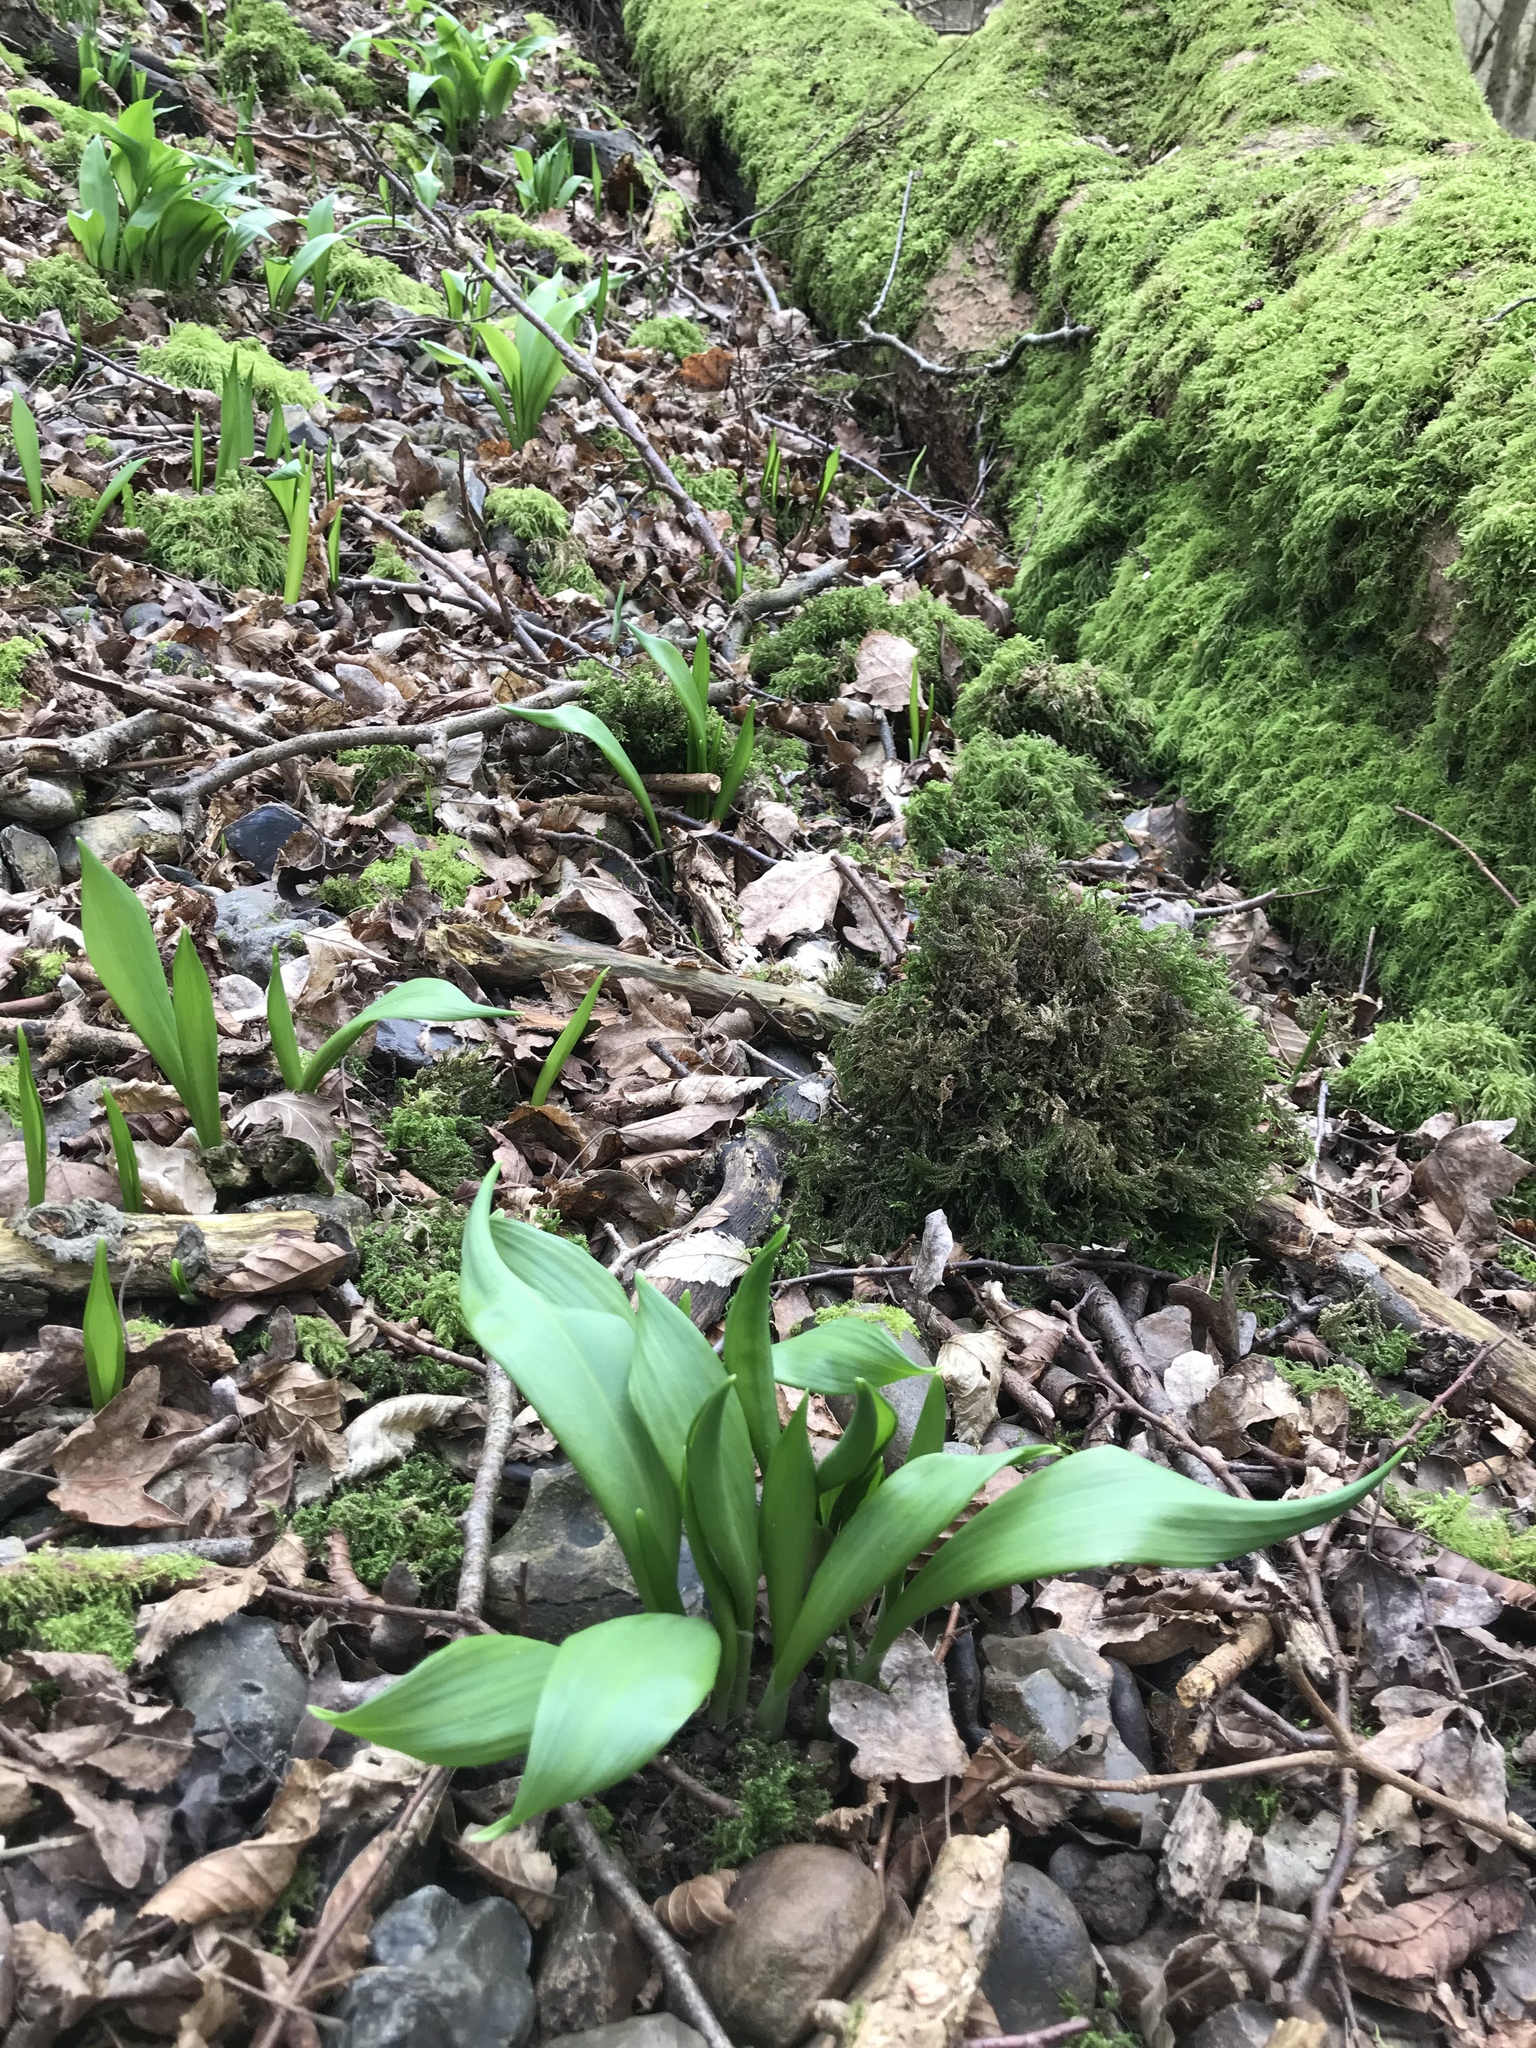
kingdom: Plantae
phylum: Tracheophyta
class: Liliopsida
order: Asparagales
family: Amaryllidaceae
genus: Allium
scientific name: Allium ursinum
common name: Ramsons
